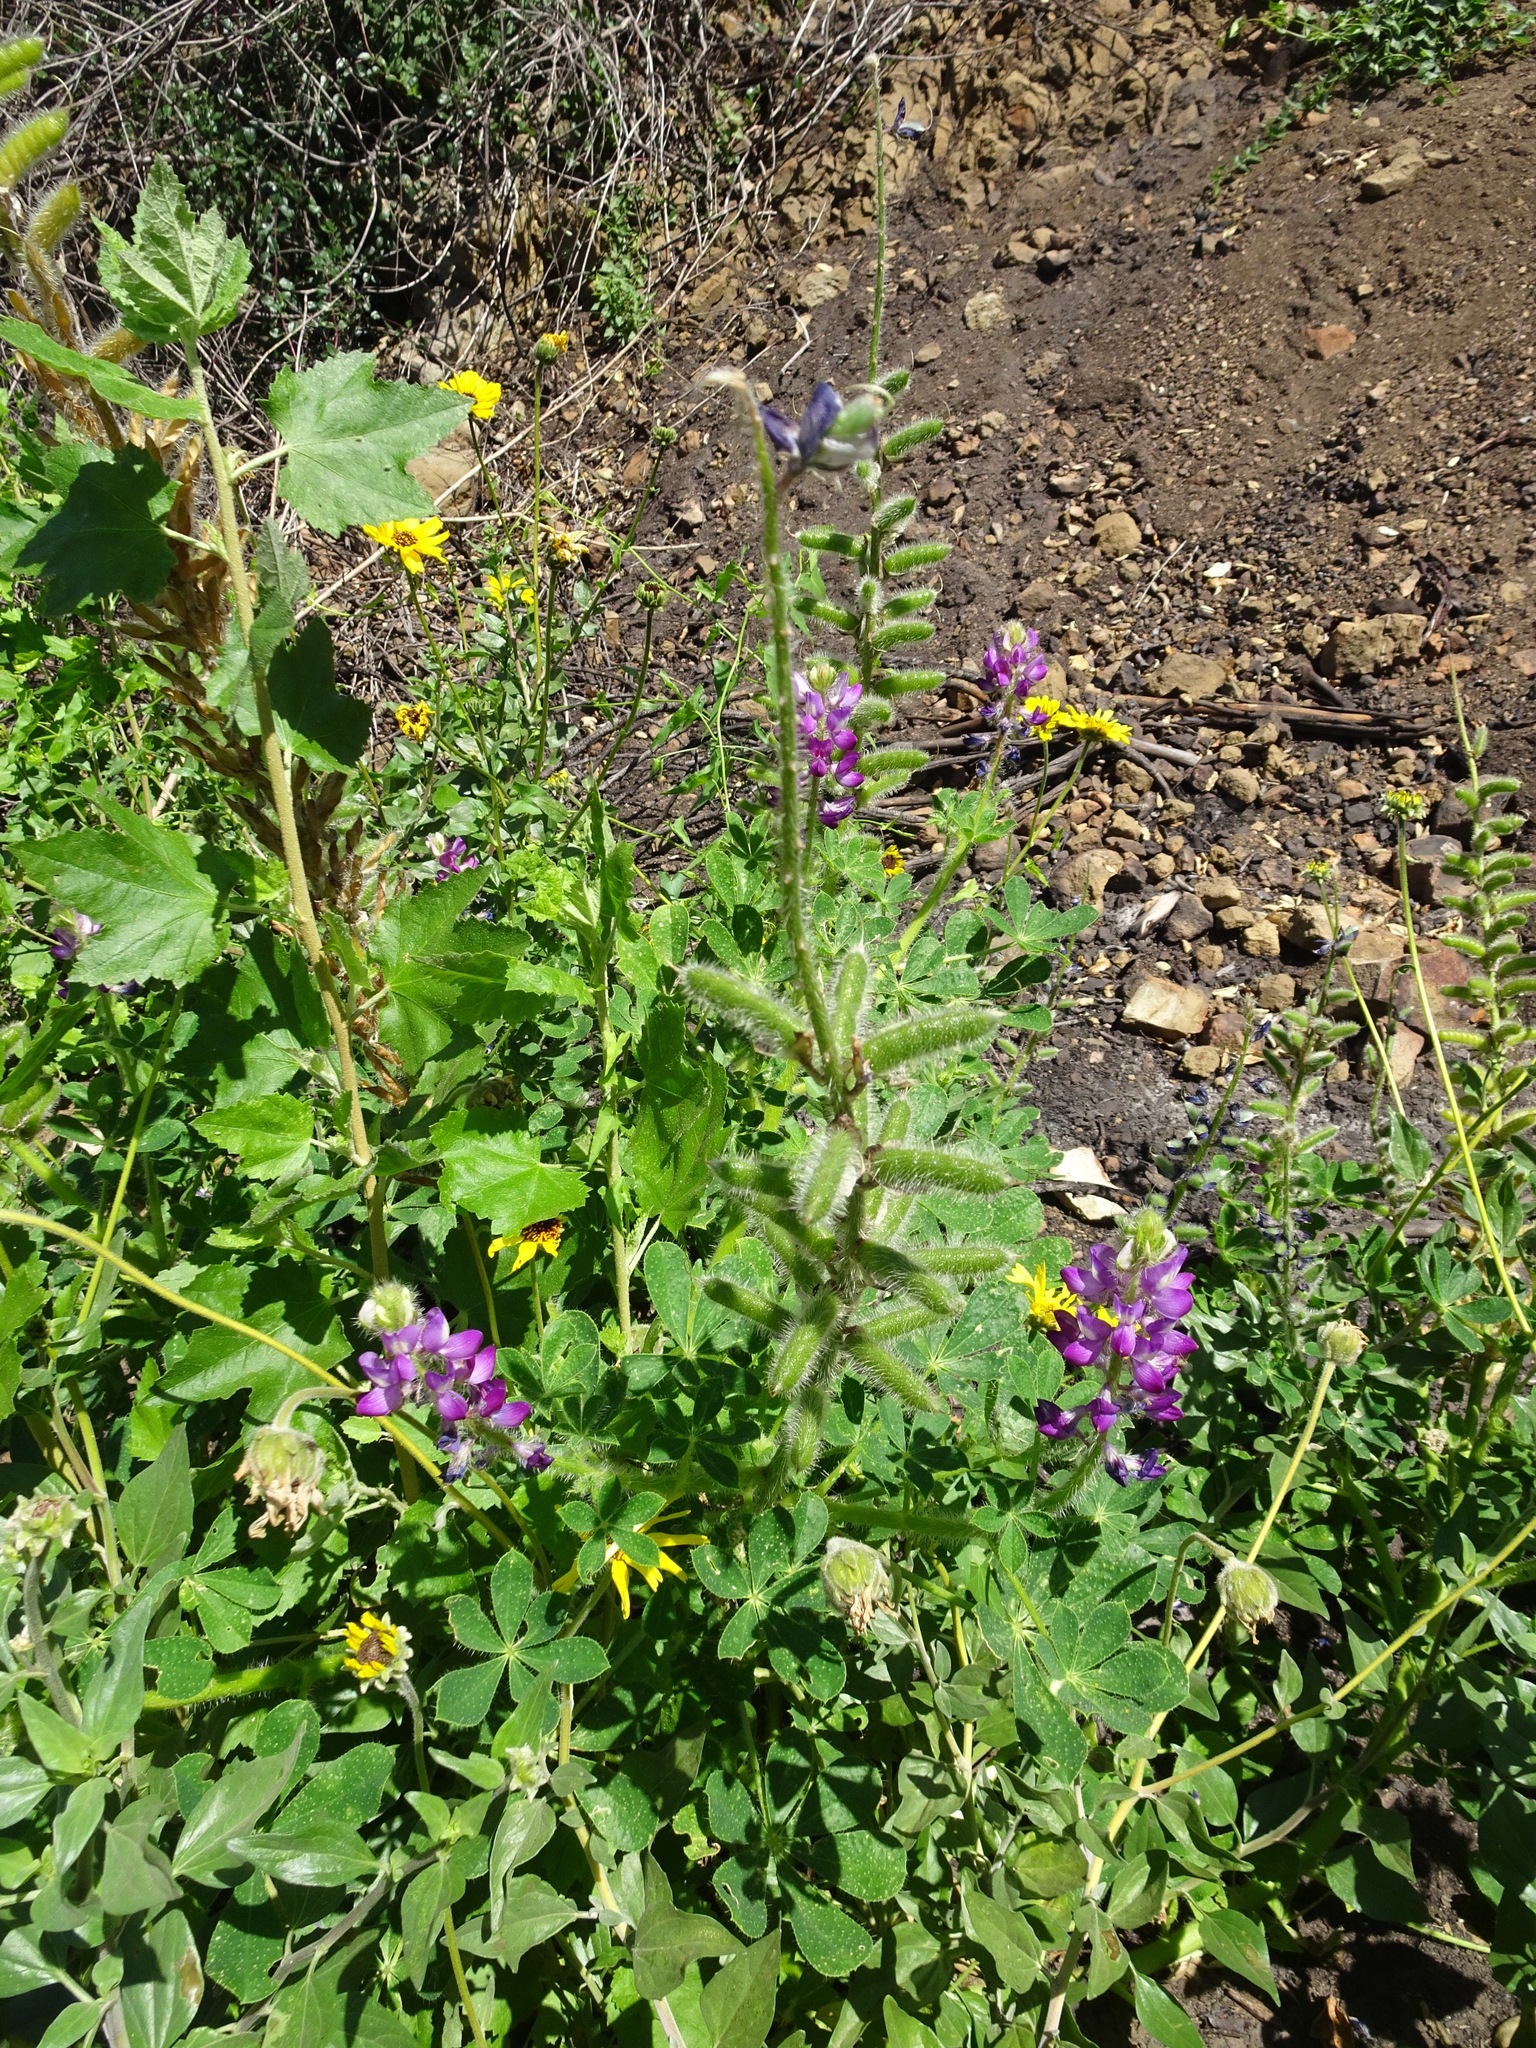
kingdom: Plantae
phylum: Tracheophyta
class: Magnoliopsida
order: Fabales
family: Fabaceae
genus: Lupinus
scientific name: Lupinus hirsutissimus
